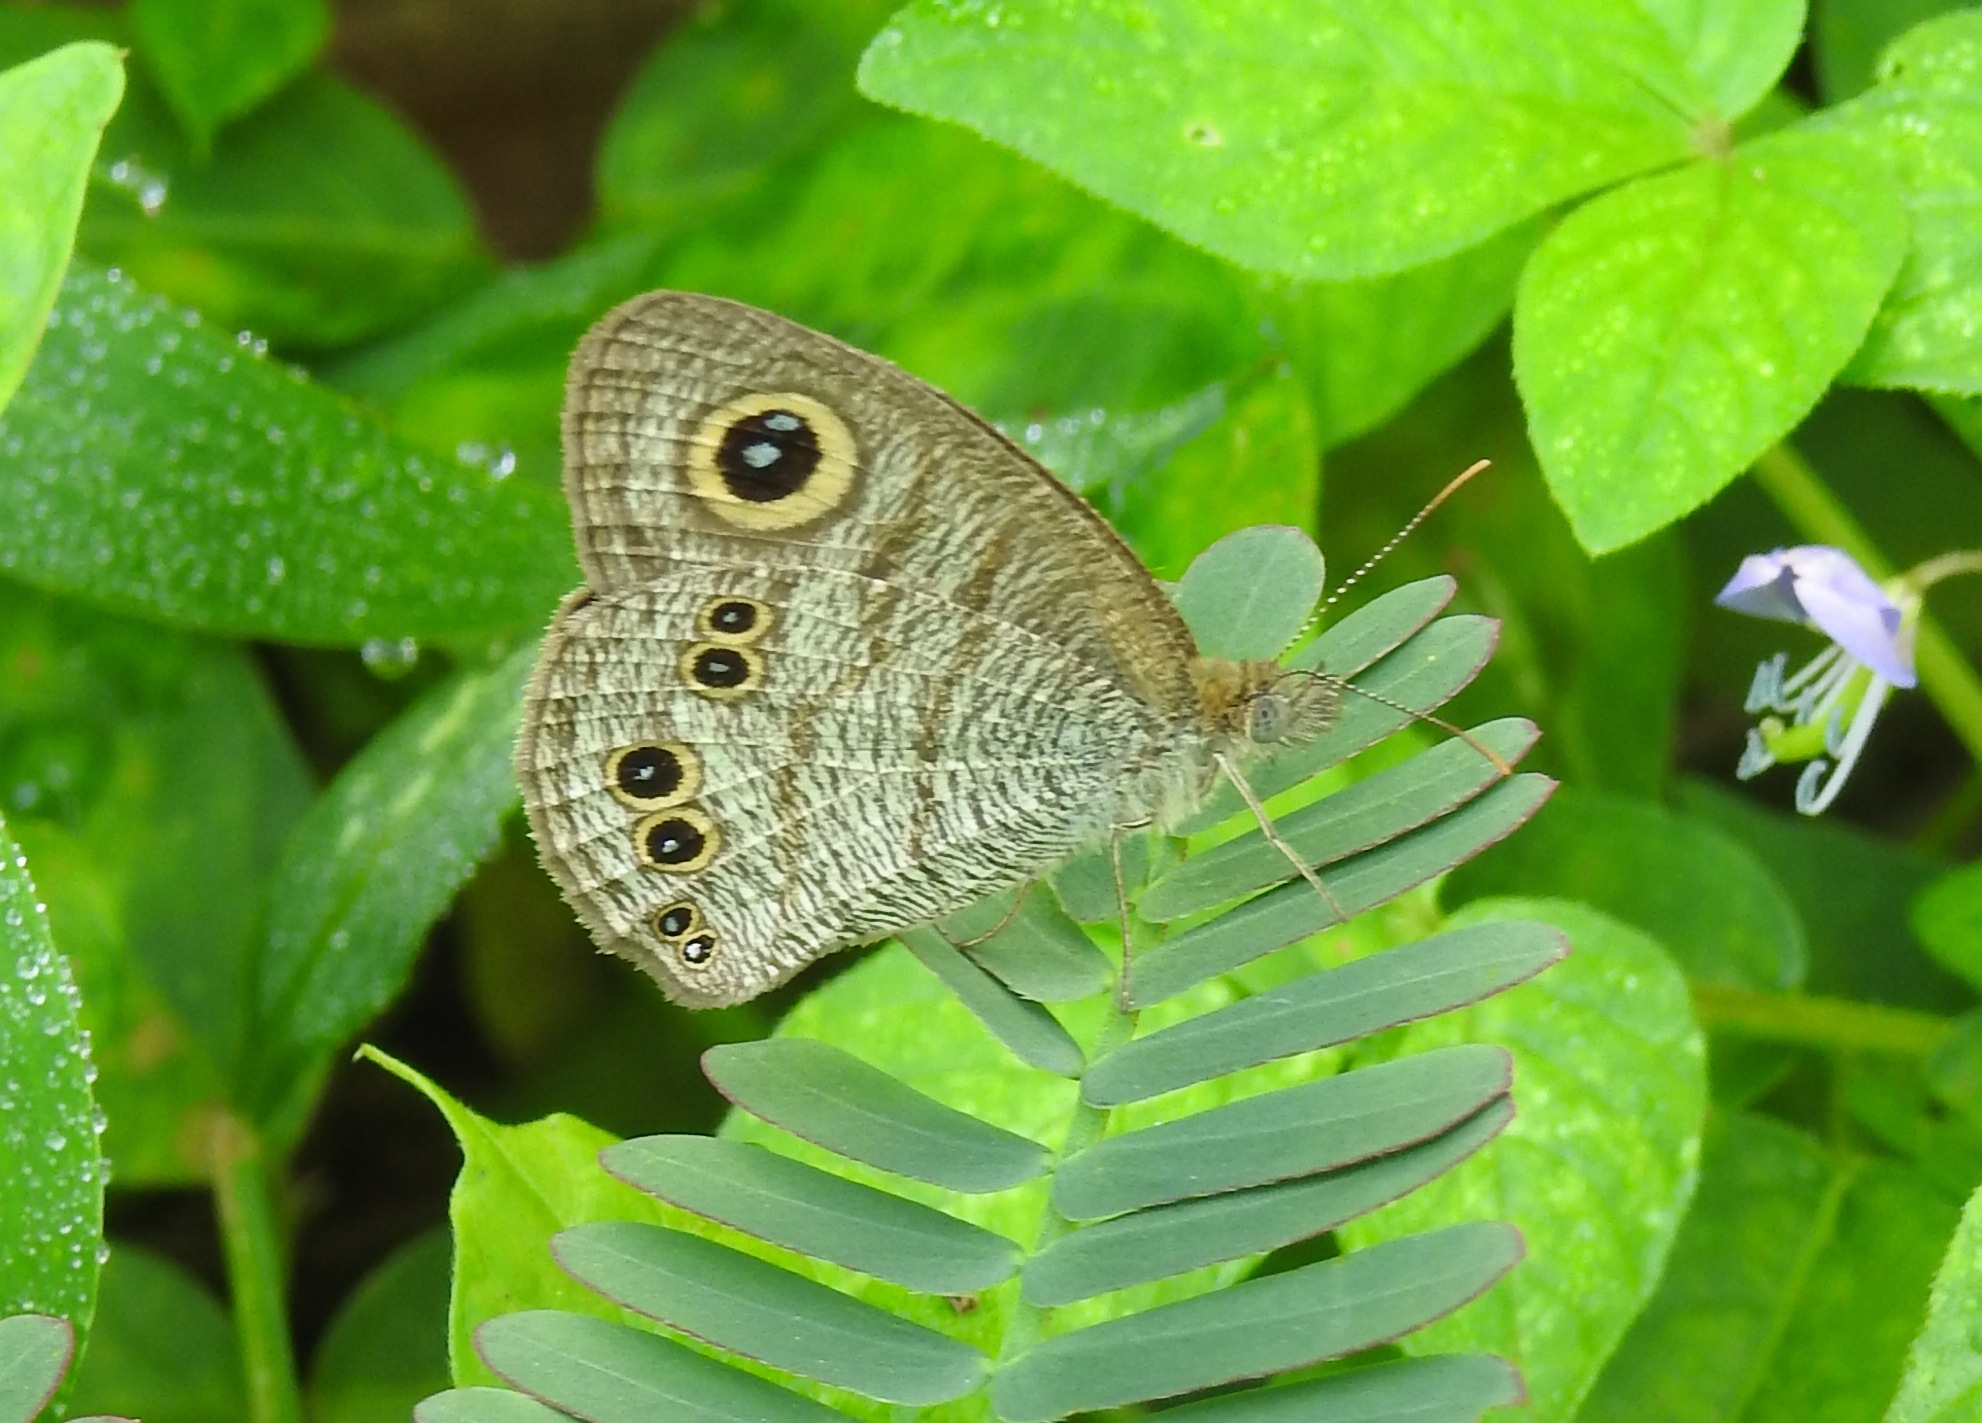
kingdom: Animalia
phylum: Arthropoda
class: Insecta
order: Lepidoptera
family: Nymphalidae
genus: Ypthima
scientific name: Ypthima baldus
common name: Common five-ring
